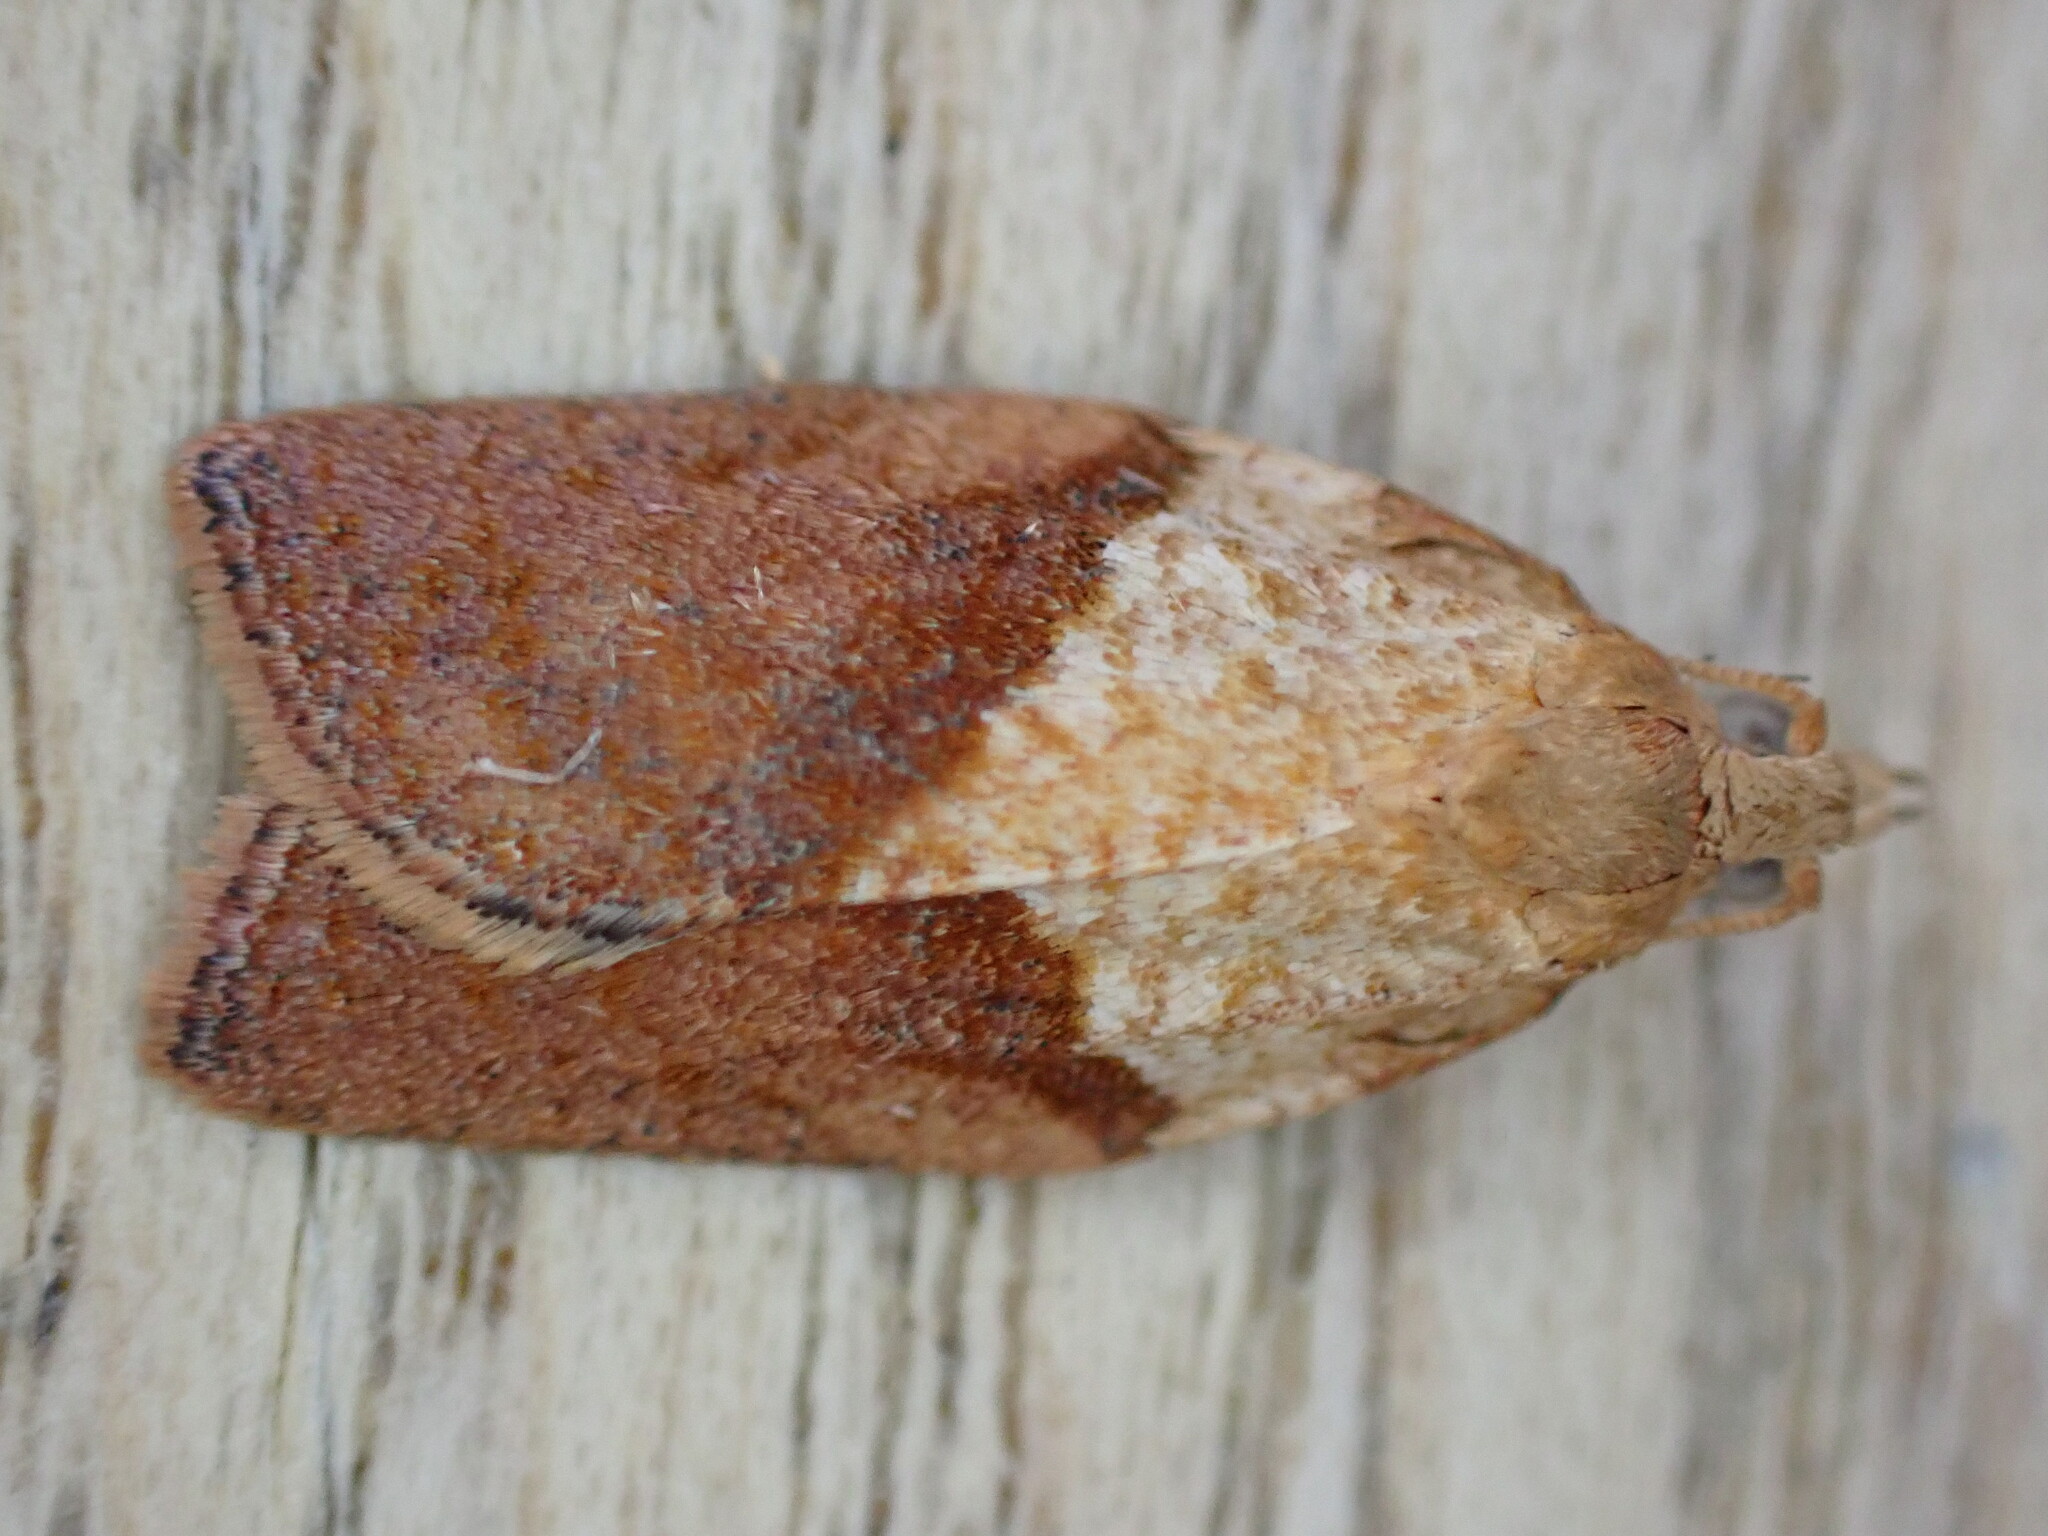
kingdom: Animalia
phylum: Arthropoda
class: Insecta
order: Lepidoptera
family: Tortricidae
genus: Epiphyas
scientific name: Epiphyas postvittana
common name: Light brown apple moth
